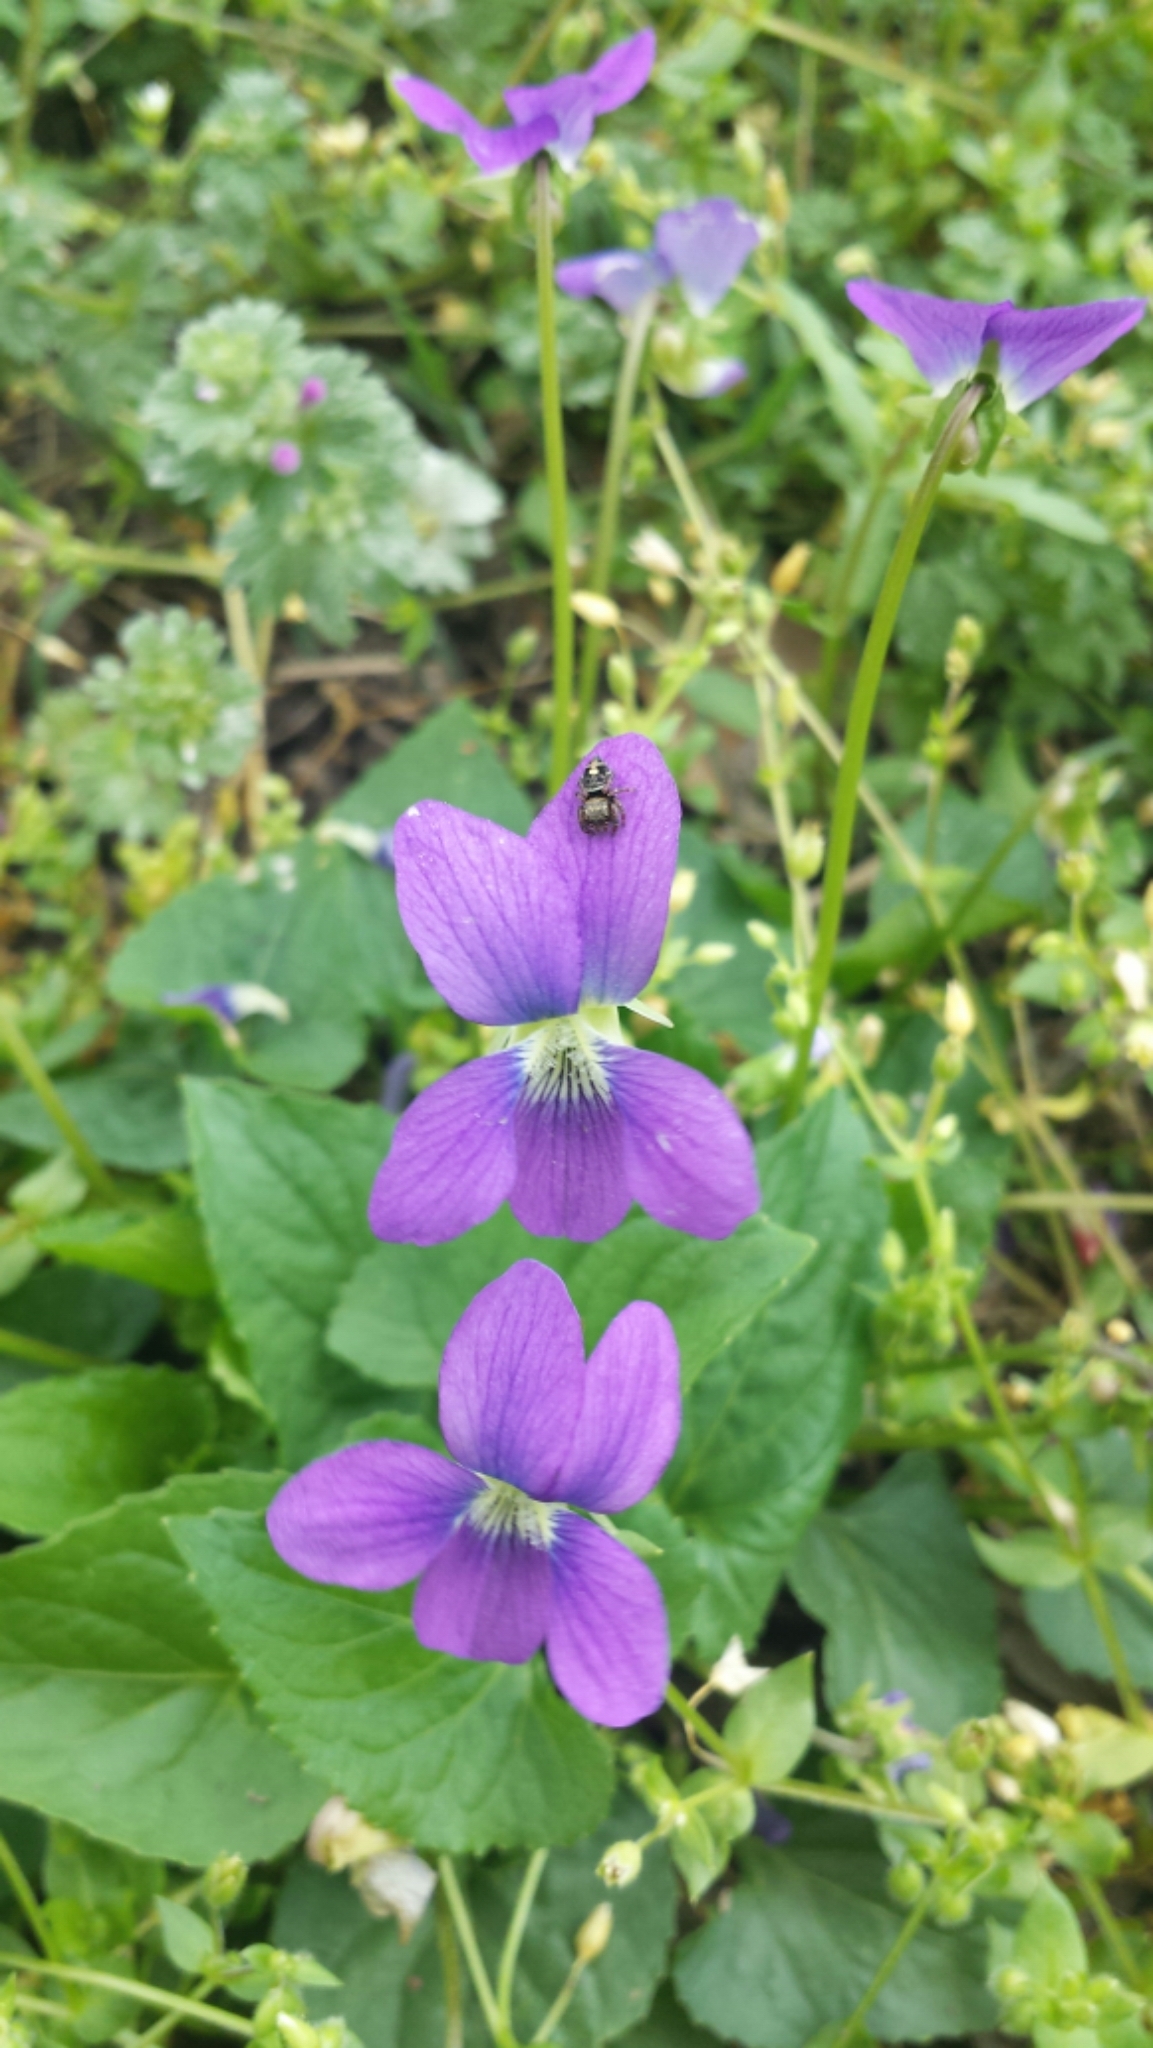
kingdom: Plantae
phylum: Tracheophyta
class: Magnoliopsida
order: Malpighiales
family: Violaceae
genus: Viola
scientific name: Viola sororia
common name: Dooryard violet
